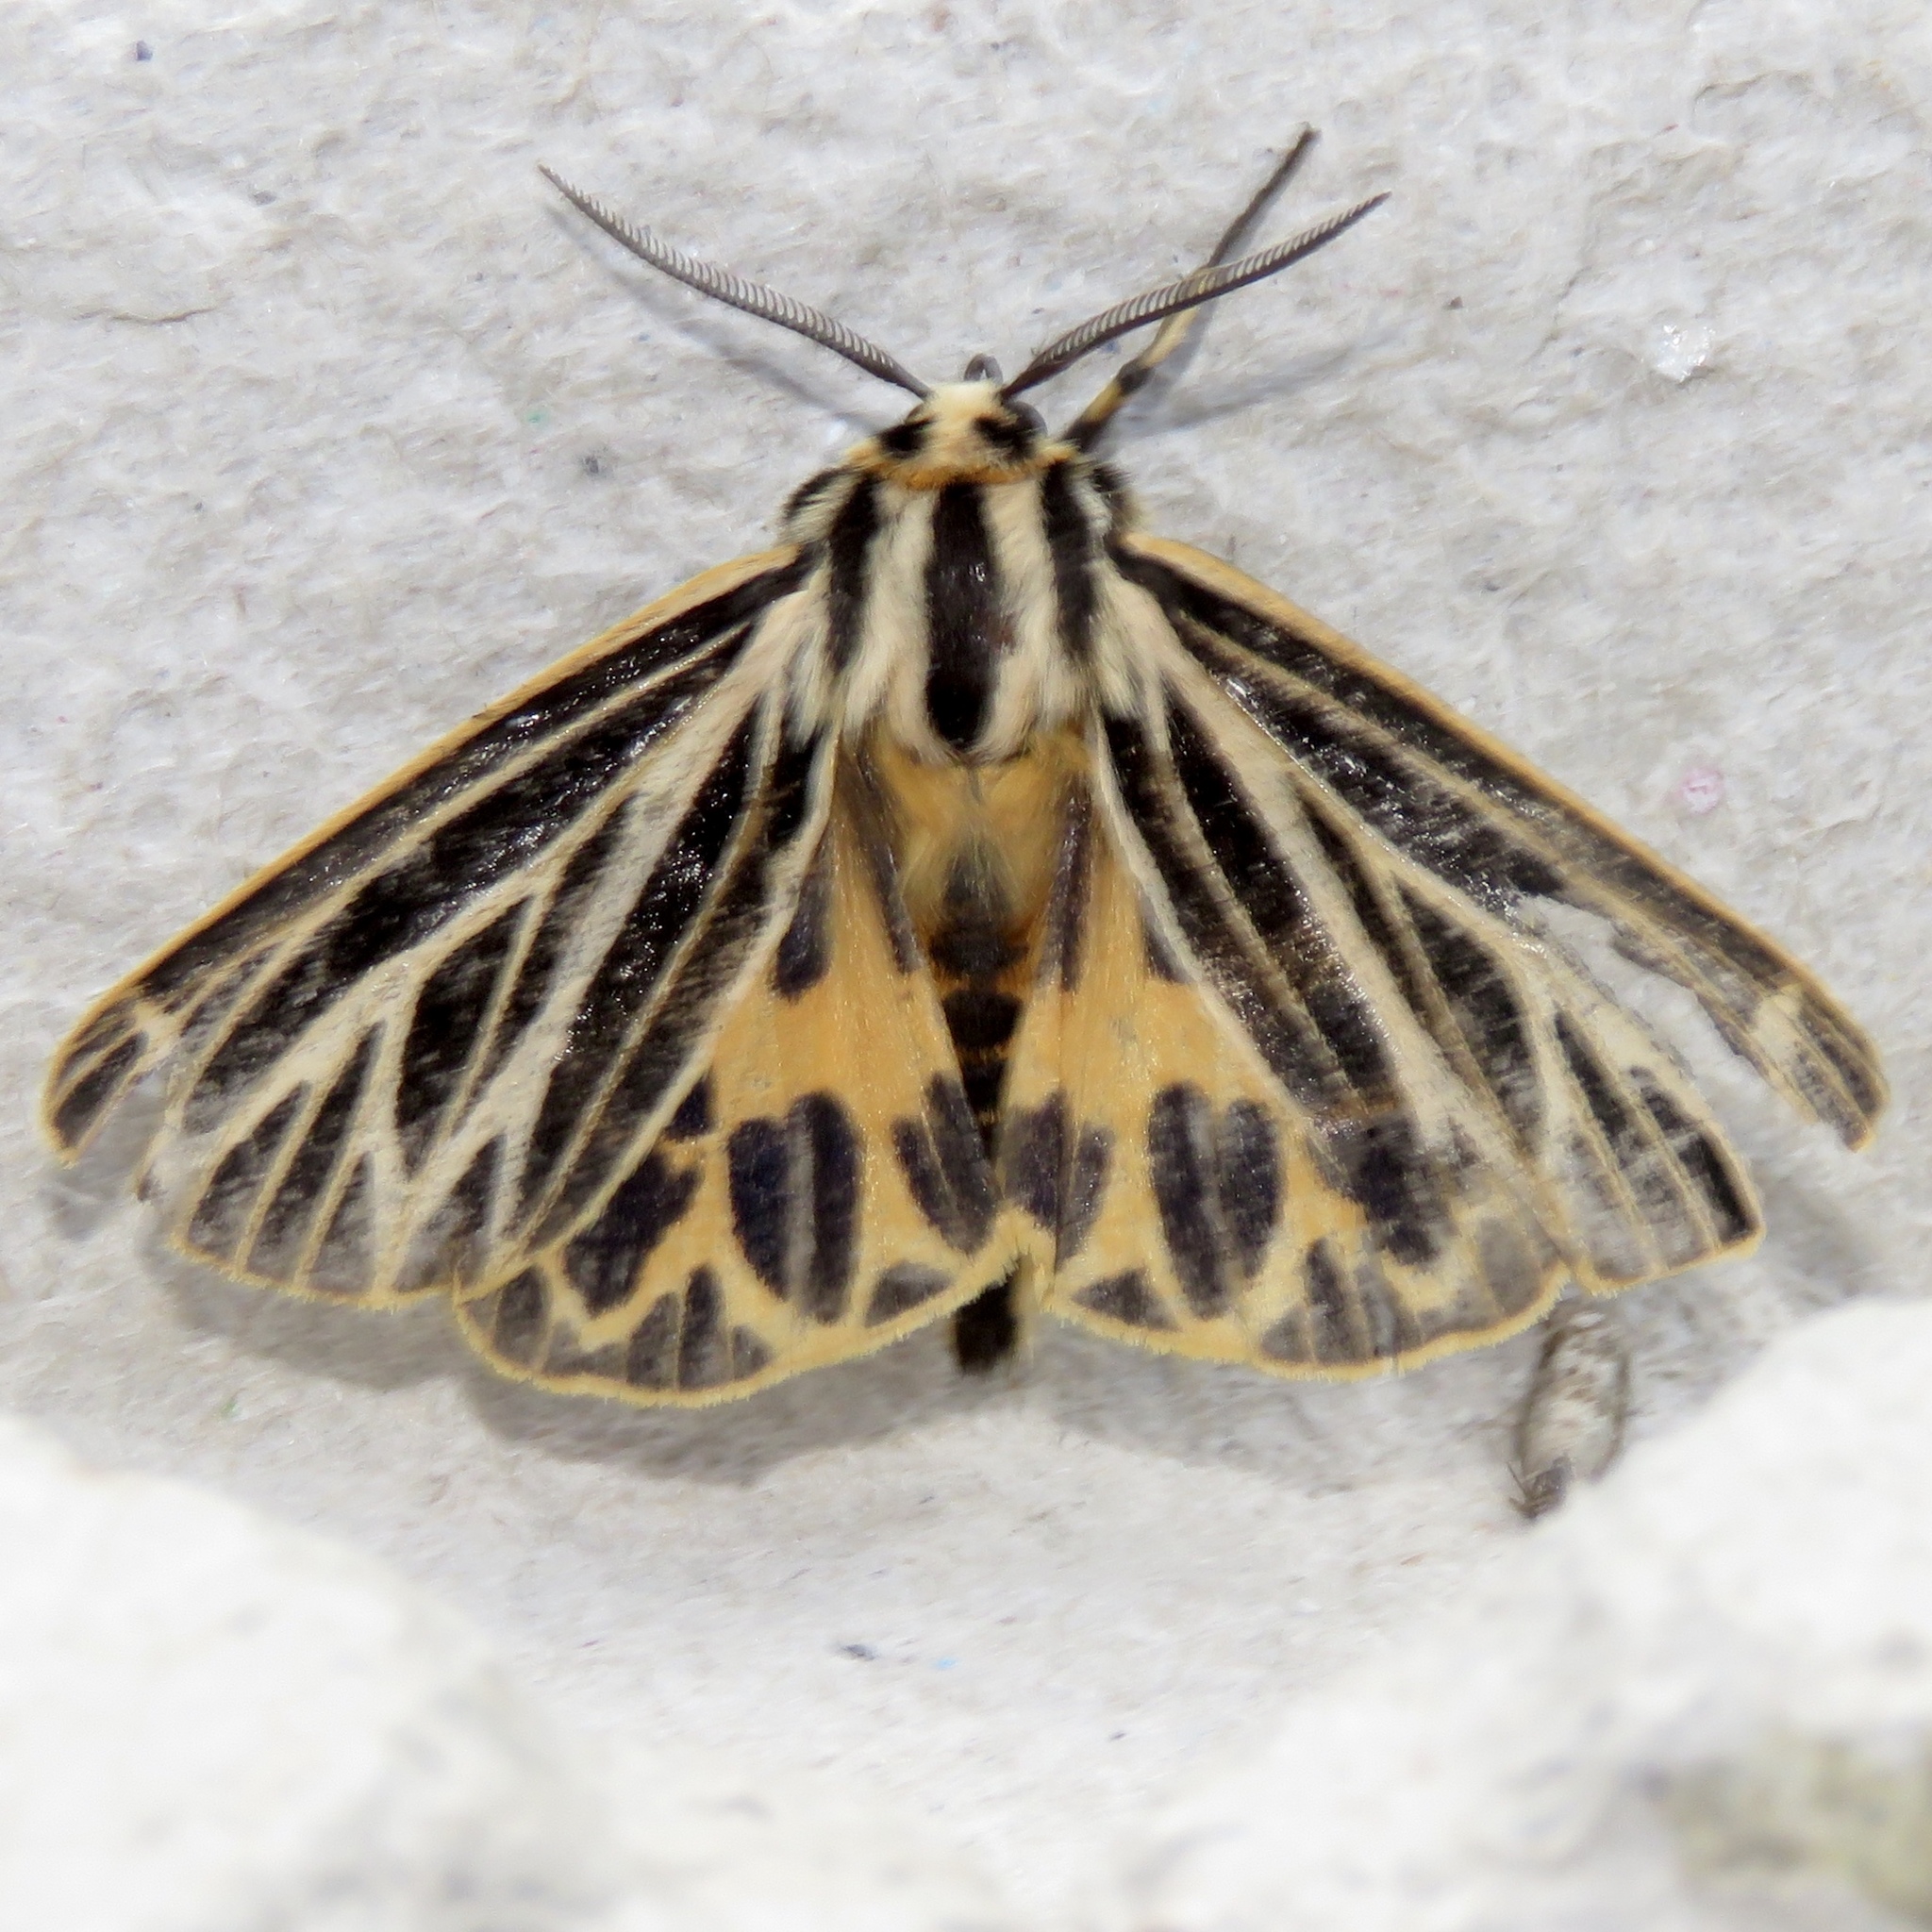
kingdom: Animalia
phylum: Arthropoda
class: Insecta
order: Lepidoptera
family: Erebidae
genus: Grammia
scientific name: Grammia virguncula
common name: Little tiger moth
